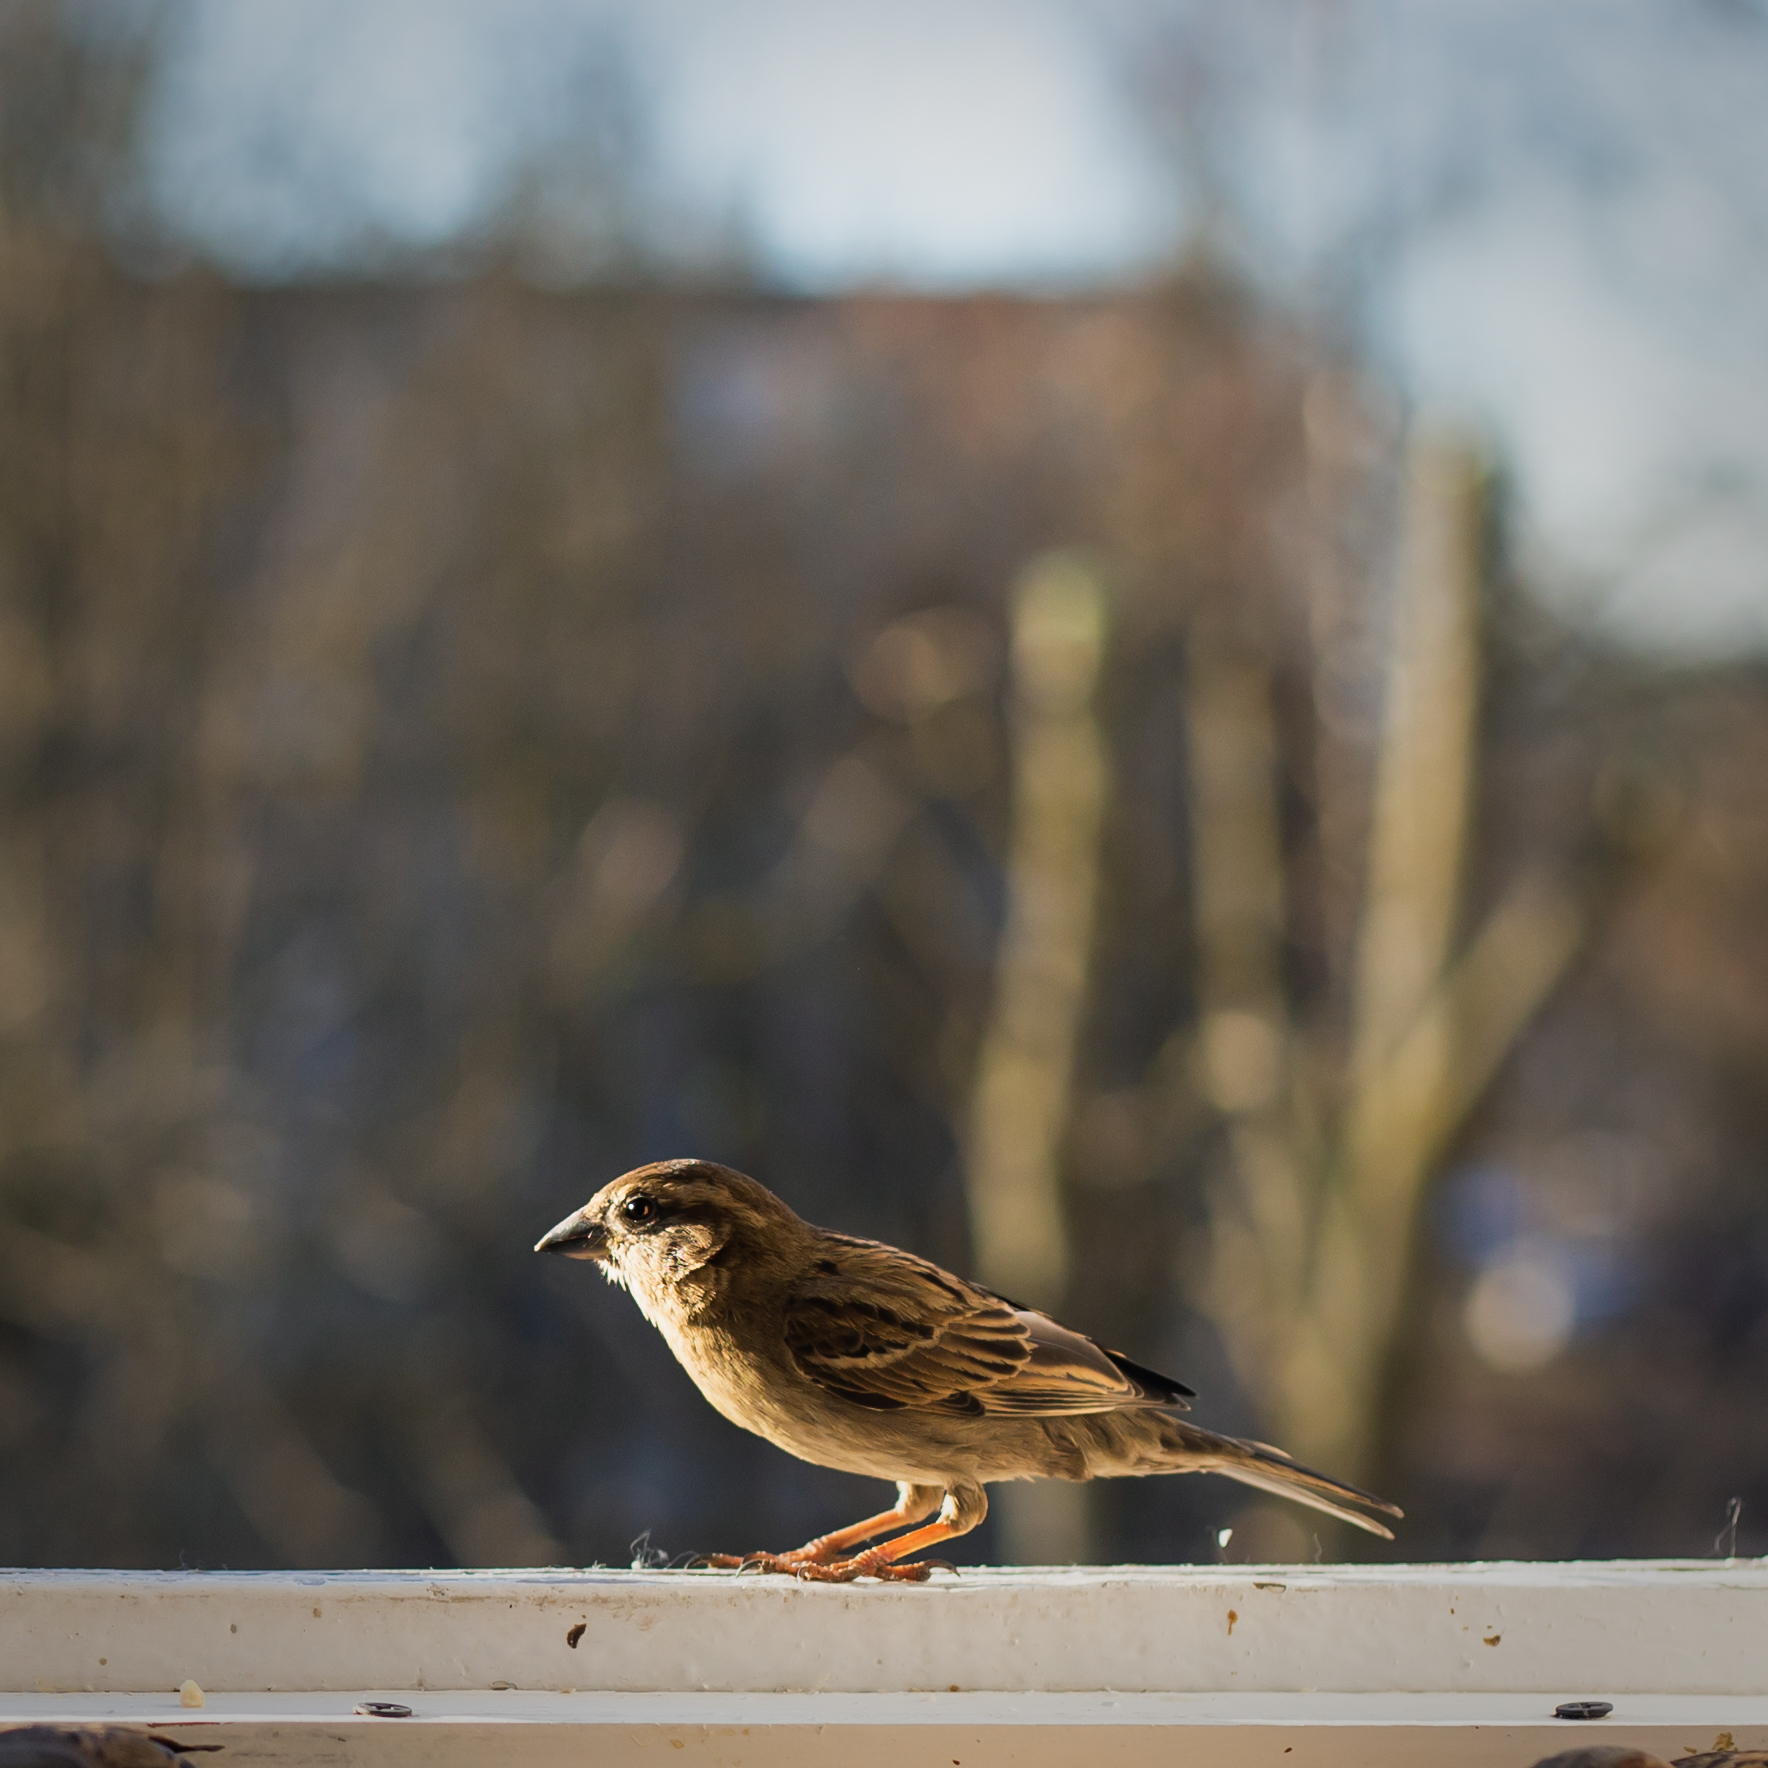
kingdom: Animalia
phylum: Chordata
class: Aves
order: Passeriformes
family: Passeridae
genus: Passer
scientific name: Passer domesticus
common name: House sparrow
